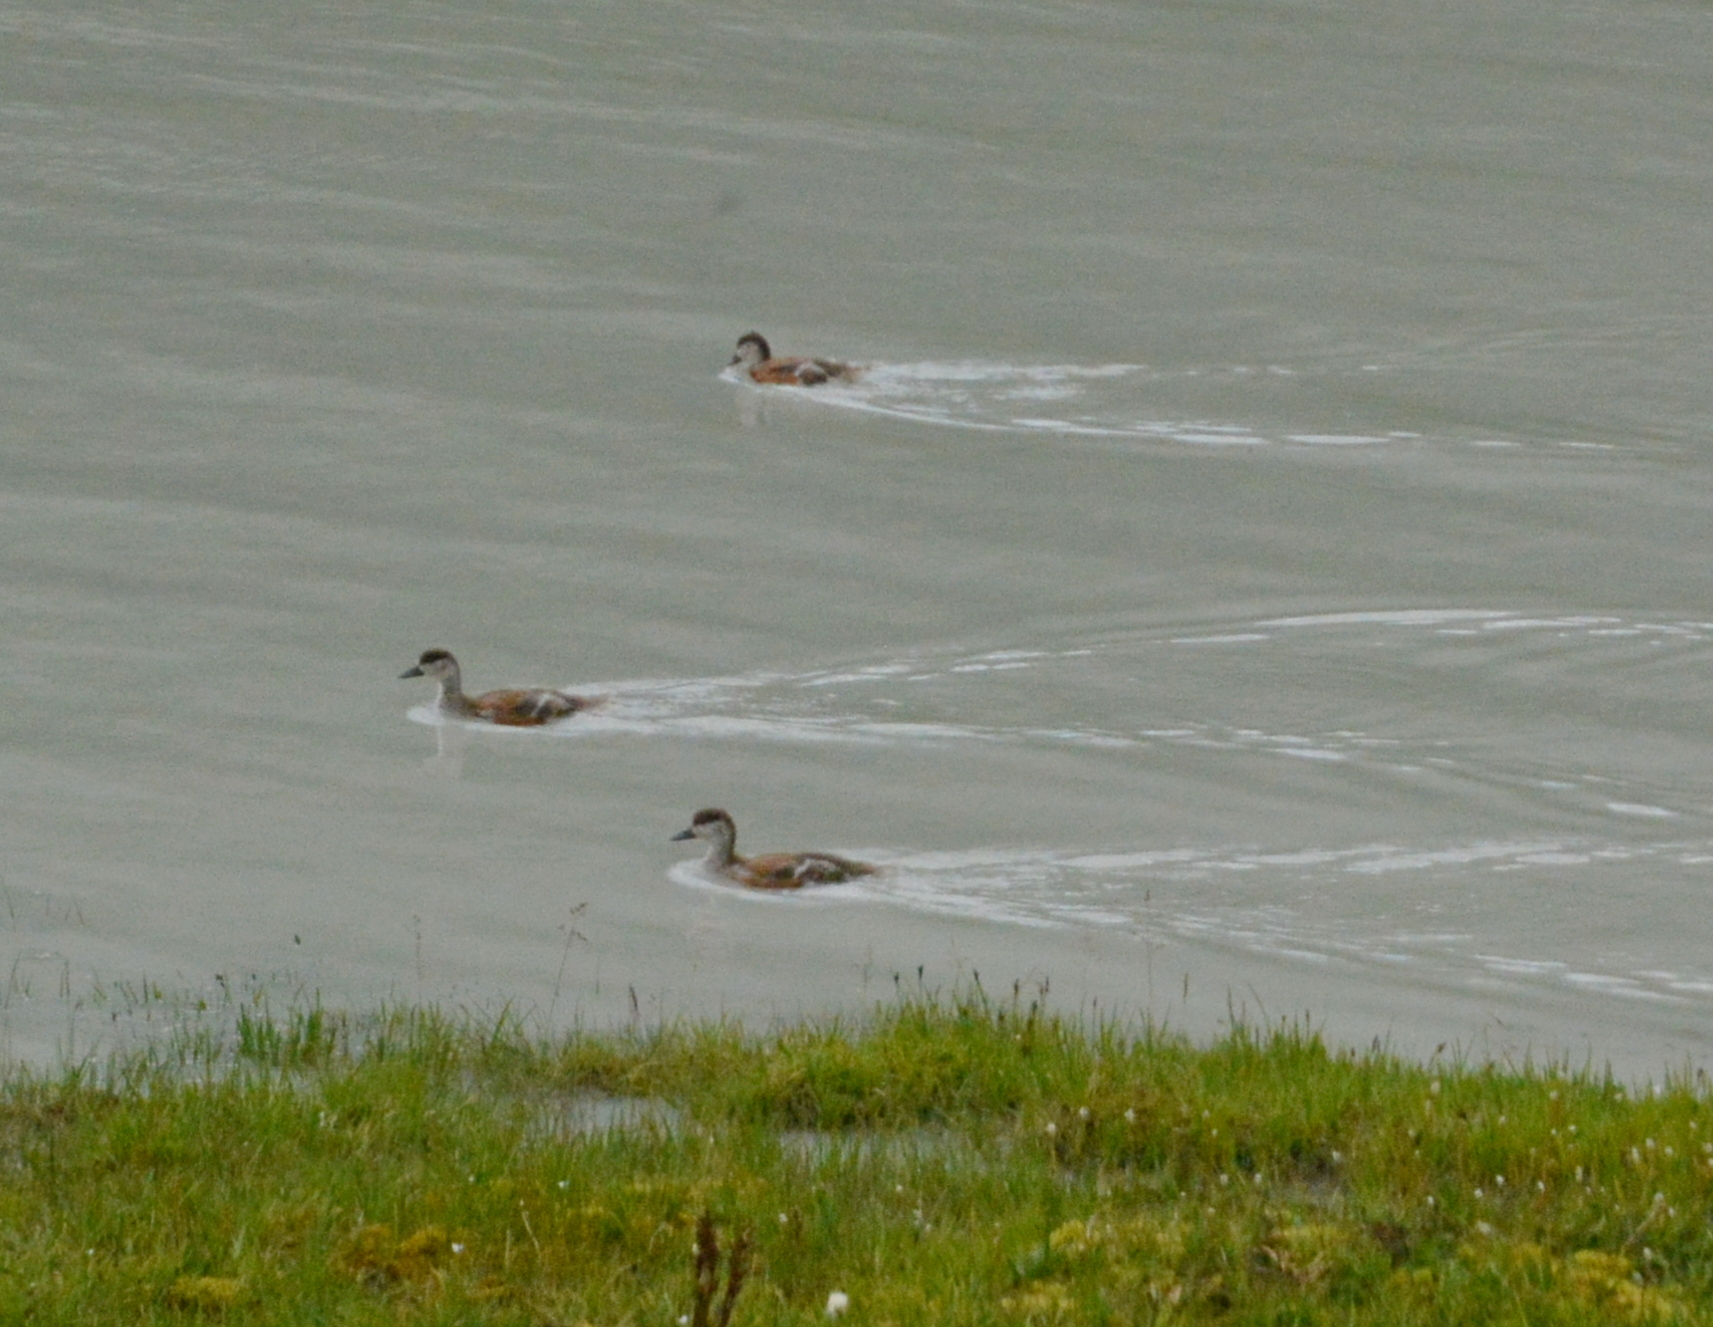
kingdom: Animalia
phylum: Chordata
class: Aves
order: Anseriformes
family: Anatidae
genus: Tadorna
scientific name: Tadorna ferruginea
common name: Ruddy shelduck
